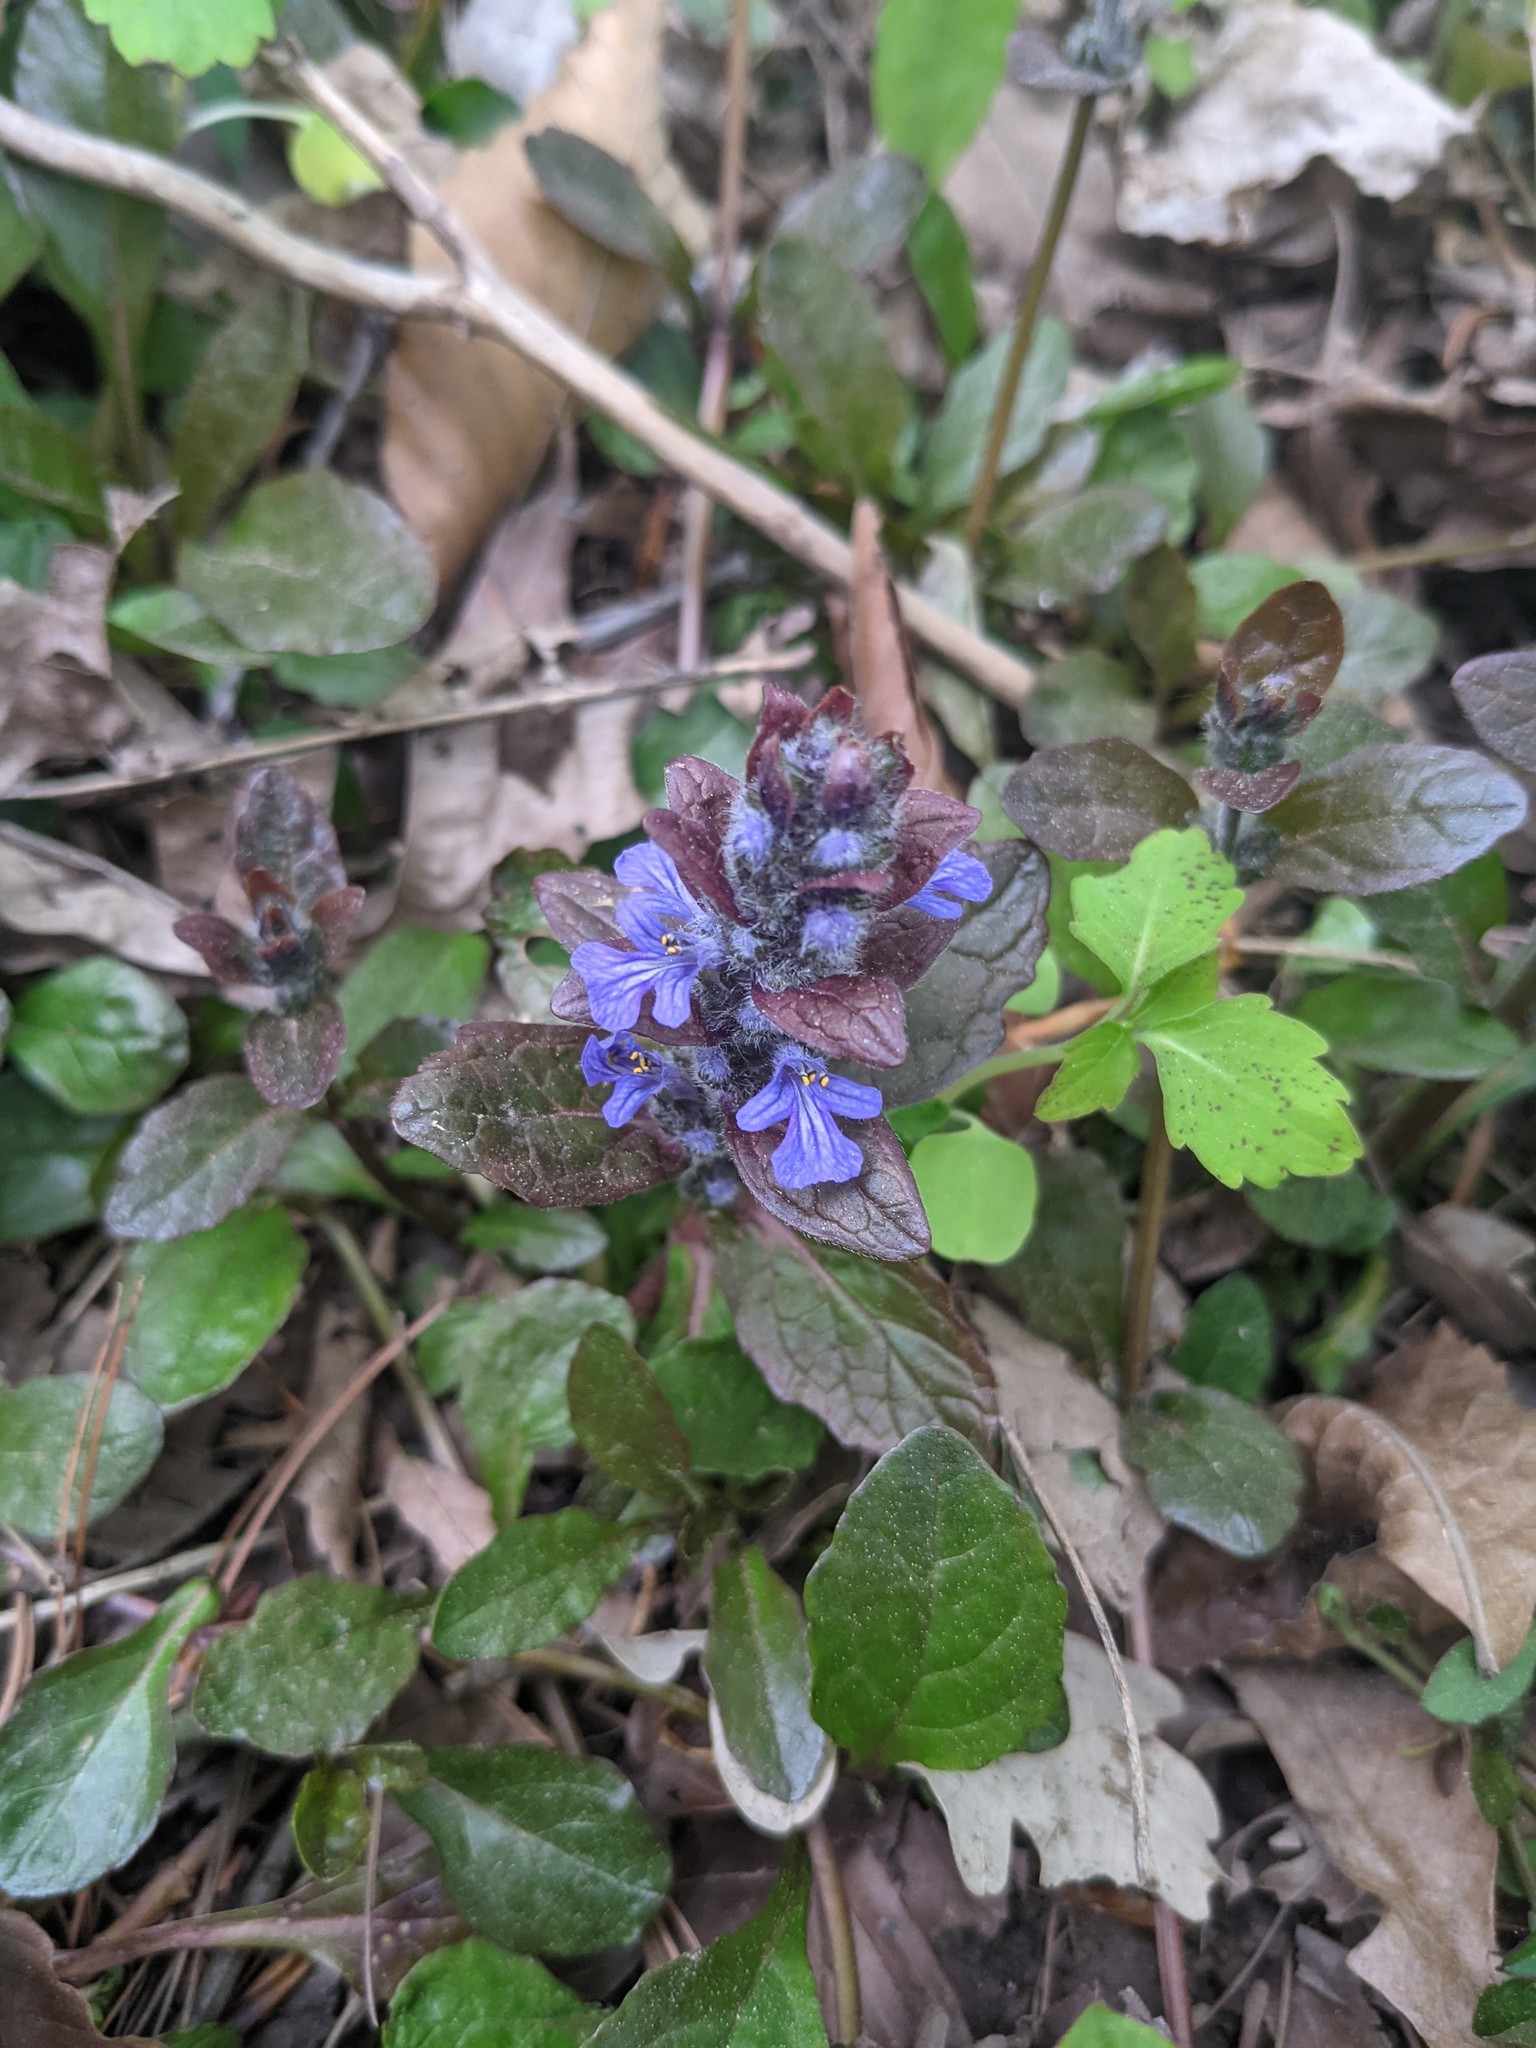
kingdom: Plantae
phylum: Tracheophyta
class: Magnoliopsida
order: Lamiales
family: Lamiaceae
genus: Ajuga
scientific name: Ajuga reptans
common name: Bugle
